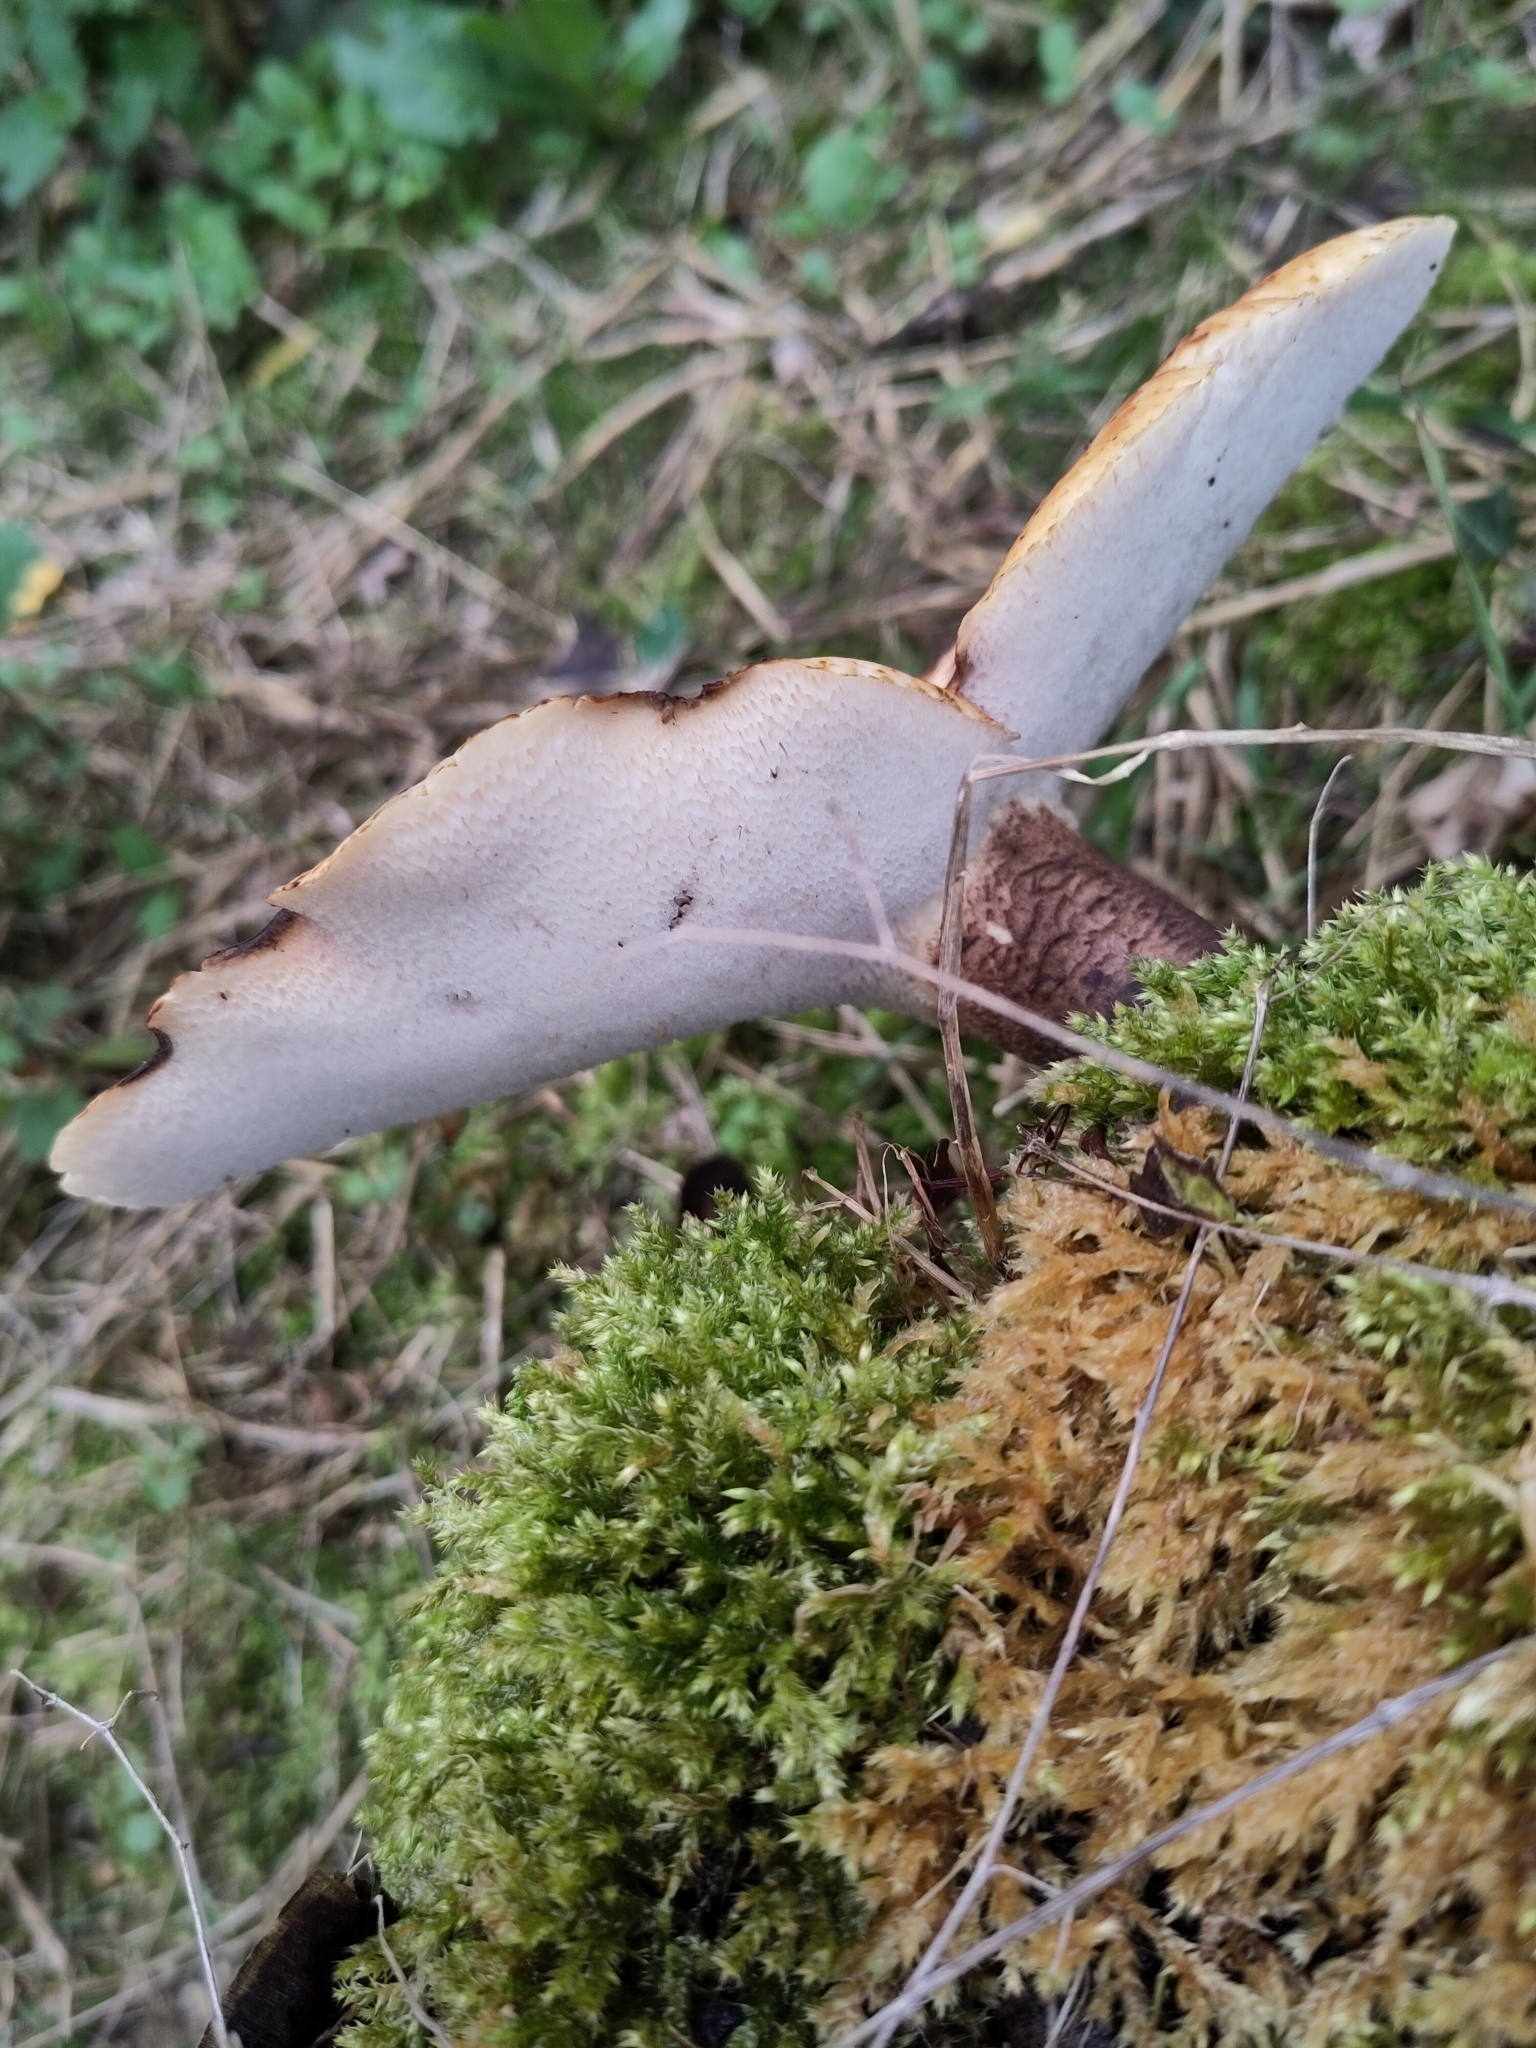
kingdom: Fungi
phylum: Basidiomycota
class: Agaricomycetes
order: Polyporales
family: Polyporaceae
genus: Cerioporus
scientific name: Cerioporus squamosus
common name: Dryad's saddle
